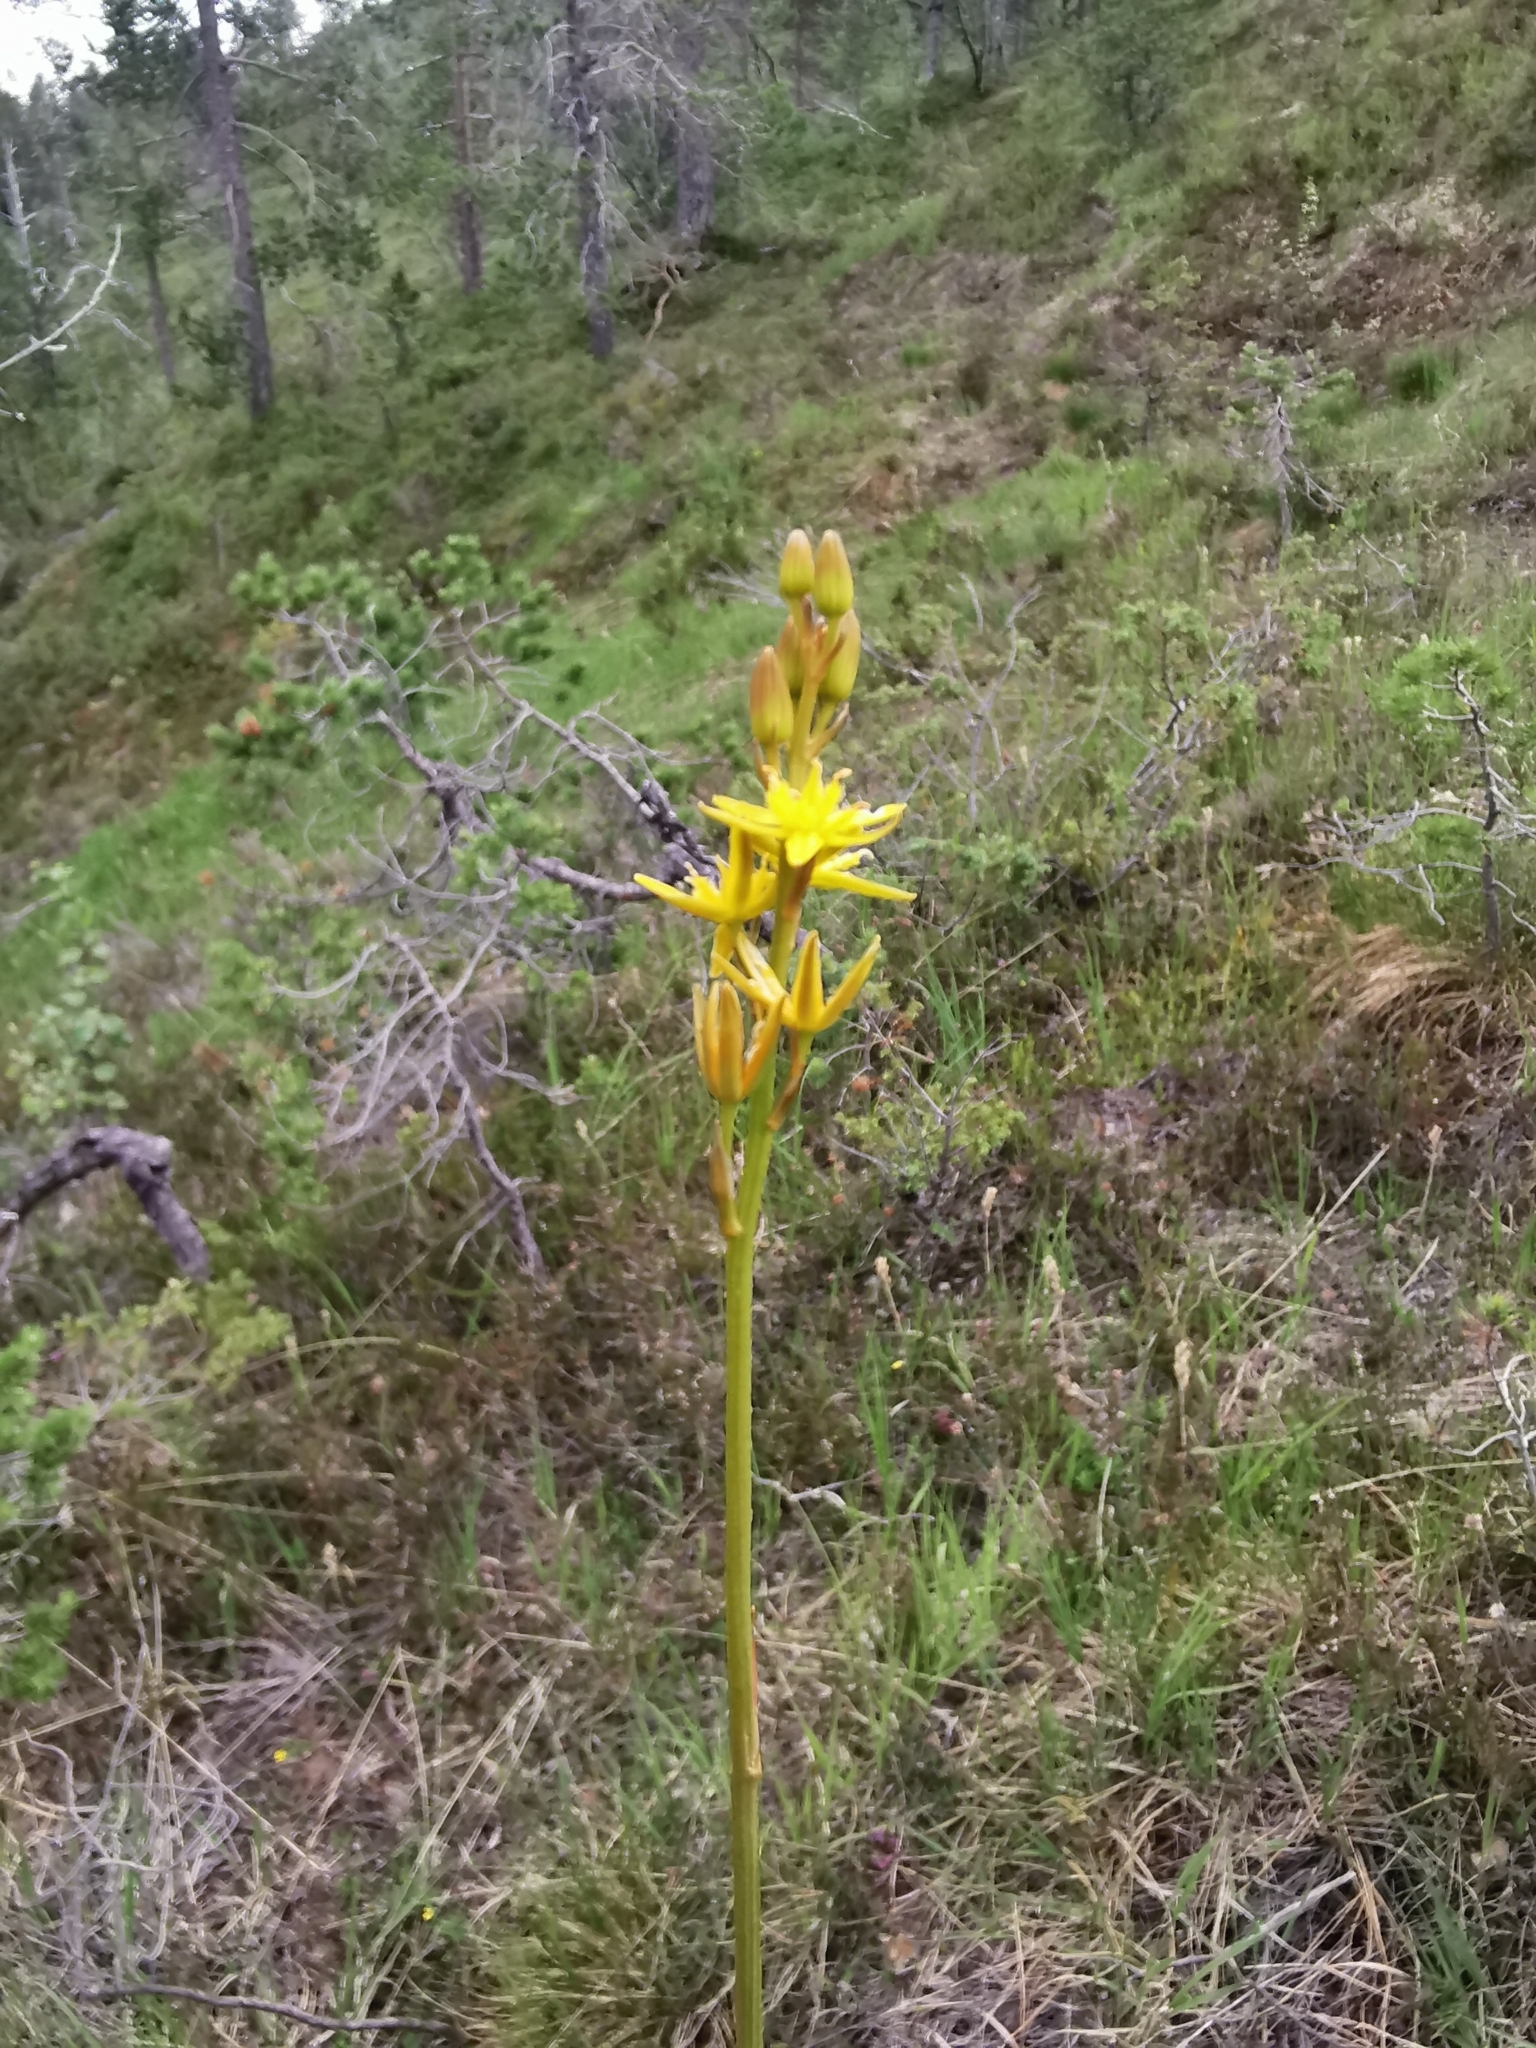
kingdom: Plantae
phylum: Tracheophyta
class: Liliopsida
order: Dioscoreales
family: Nartheciaceae
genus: Narthecium
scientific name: Narthecium ossifragum
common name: Bog asphodel
